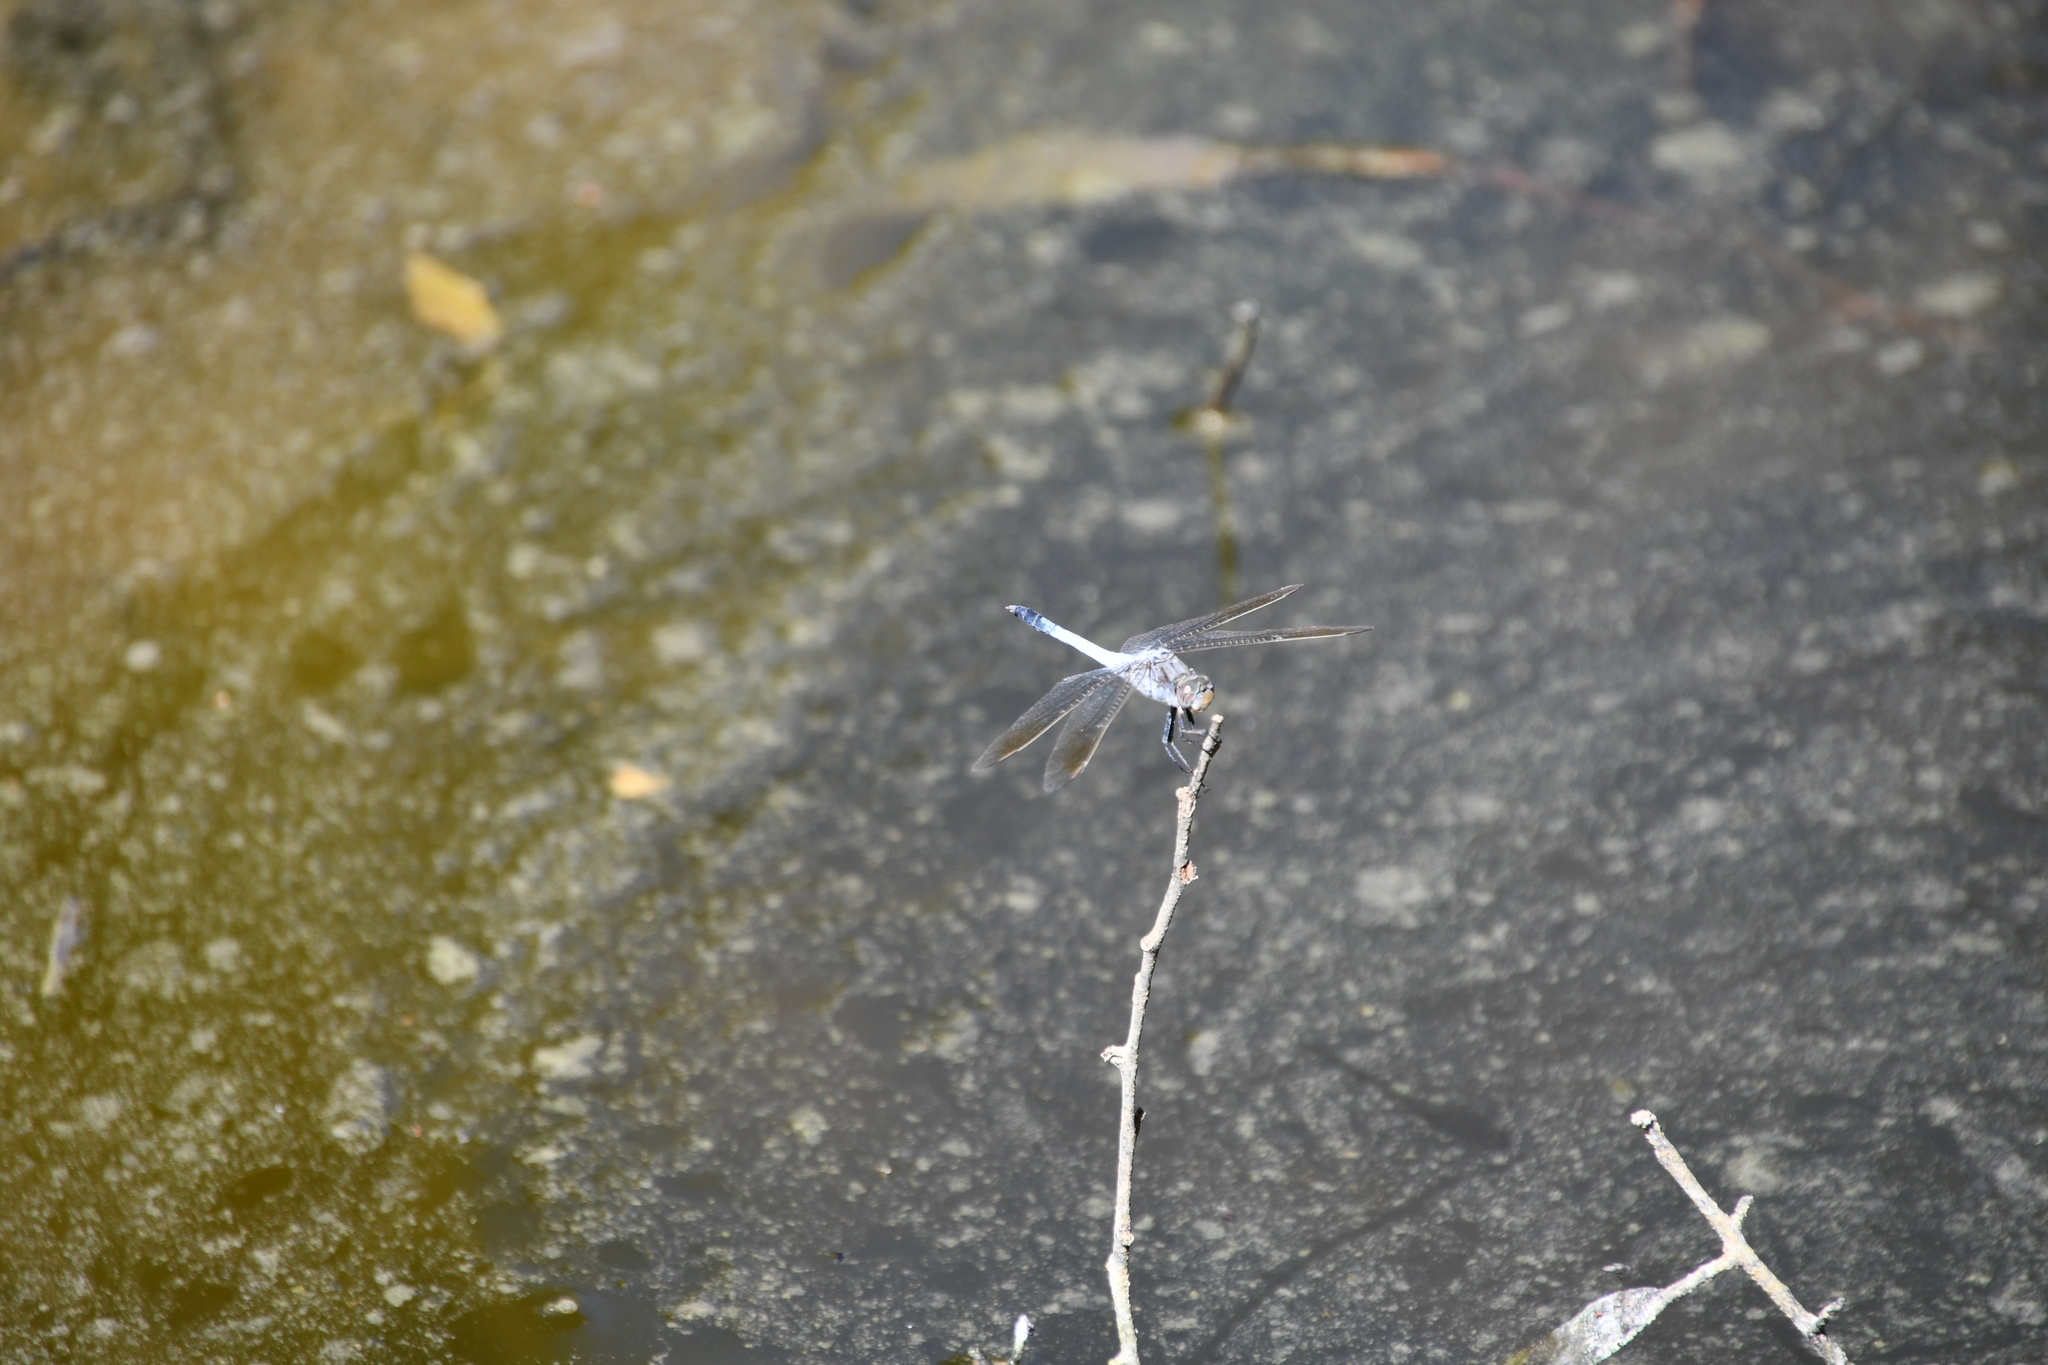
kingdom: Animalia
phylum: Arthropoda
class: Insecta
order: Odonata
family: Libellulidae
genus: Orthetrum
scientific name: Orthetrum caledonicum
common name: Blue skimmer
